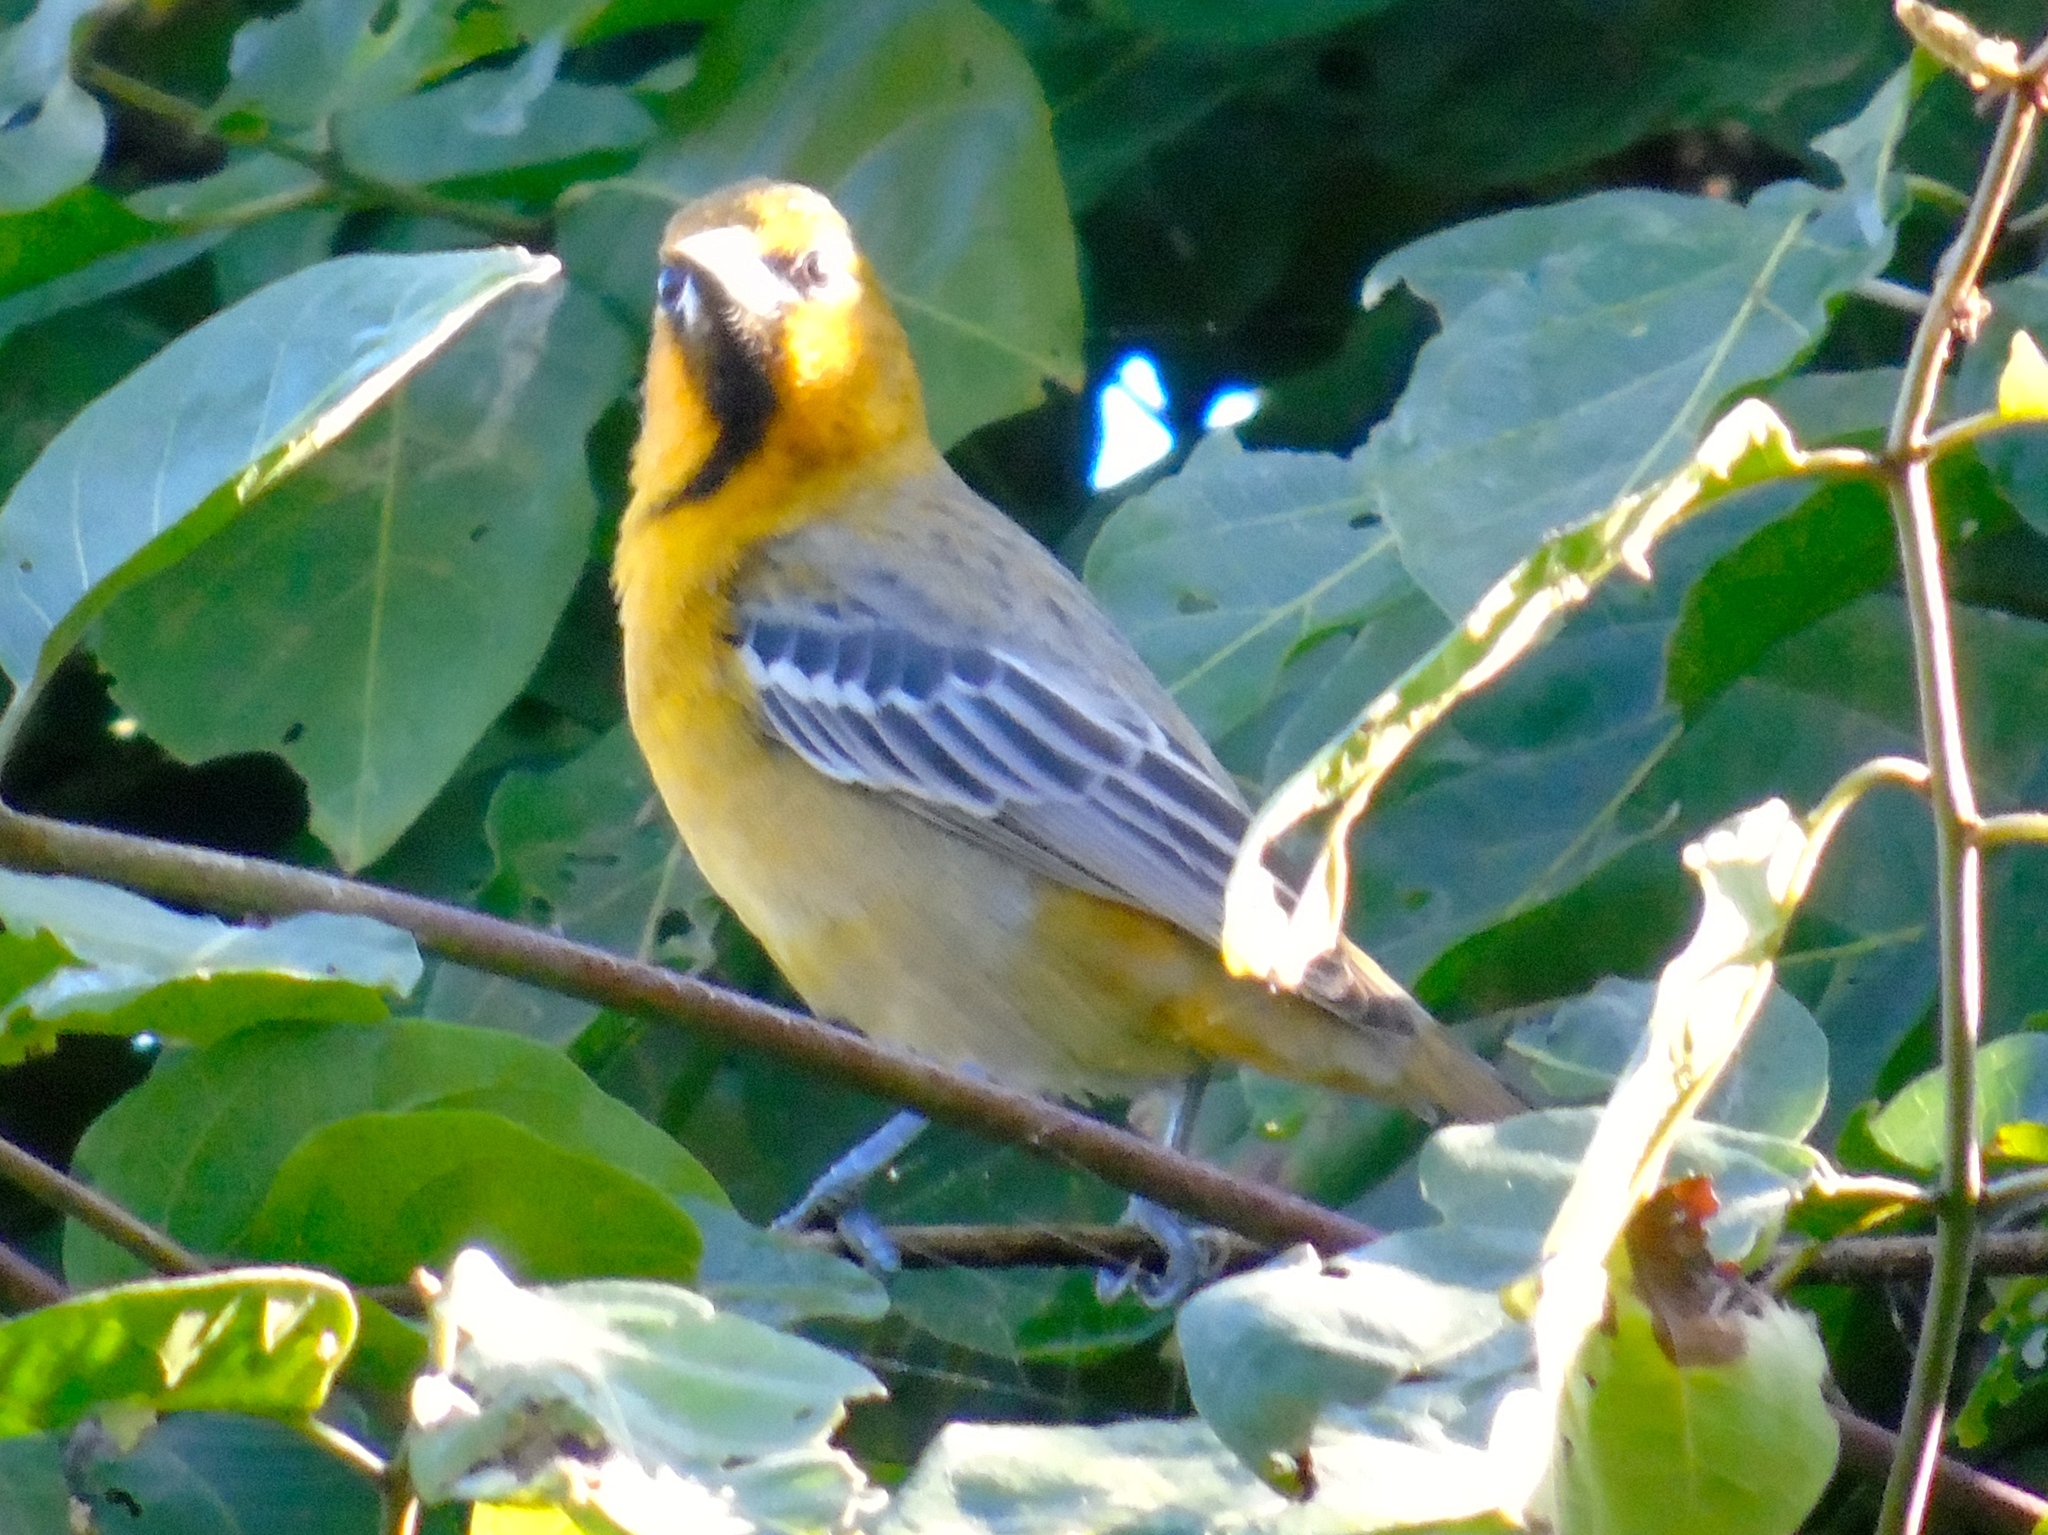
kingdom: Animalia
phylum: Chordata
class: Aves
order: Passeriformes
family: Icteridae
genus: Icterus
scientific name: Icterus pustulatus
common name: Streak-backed oriole
